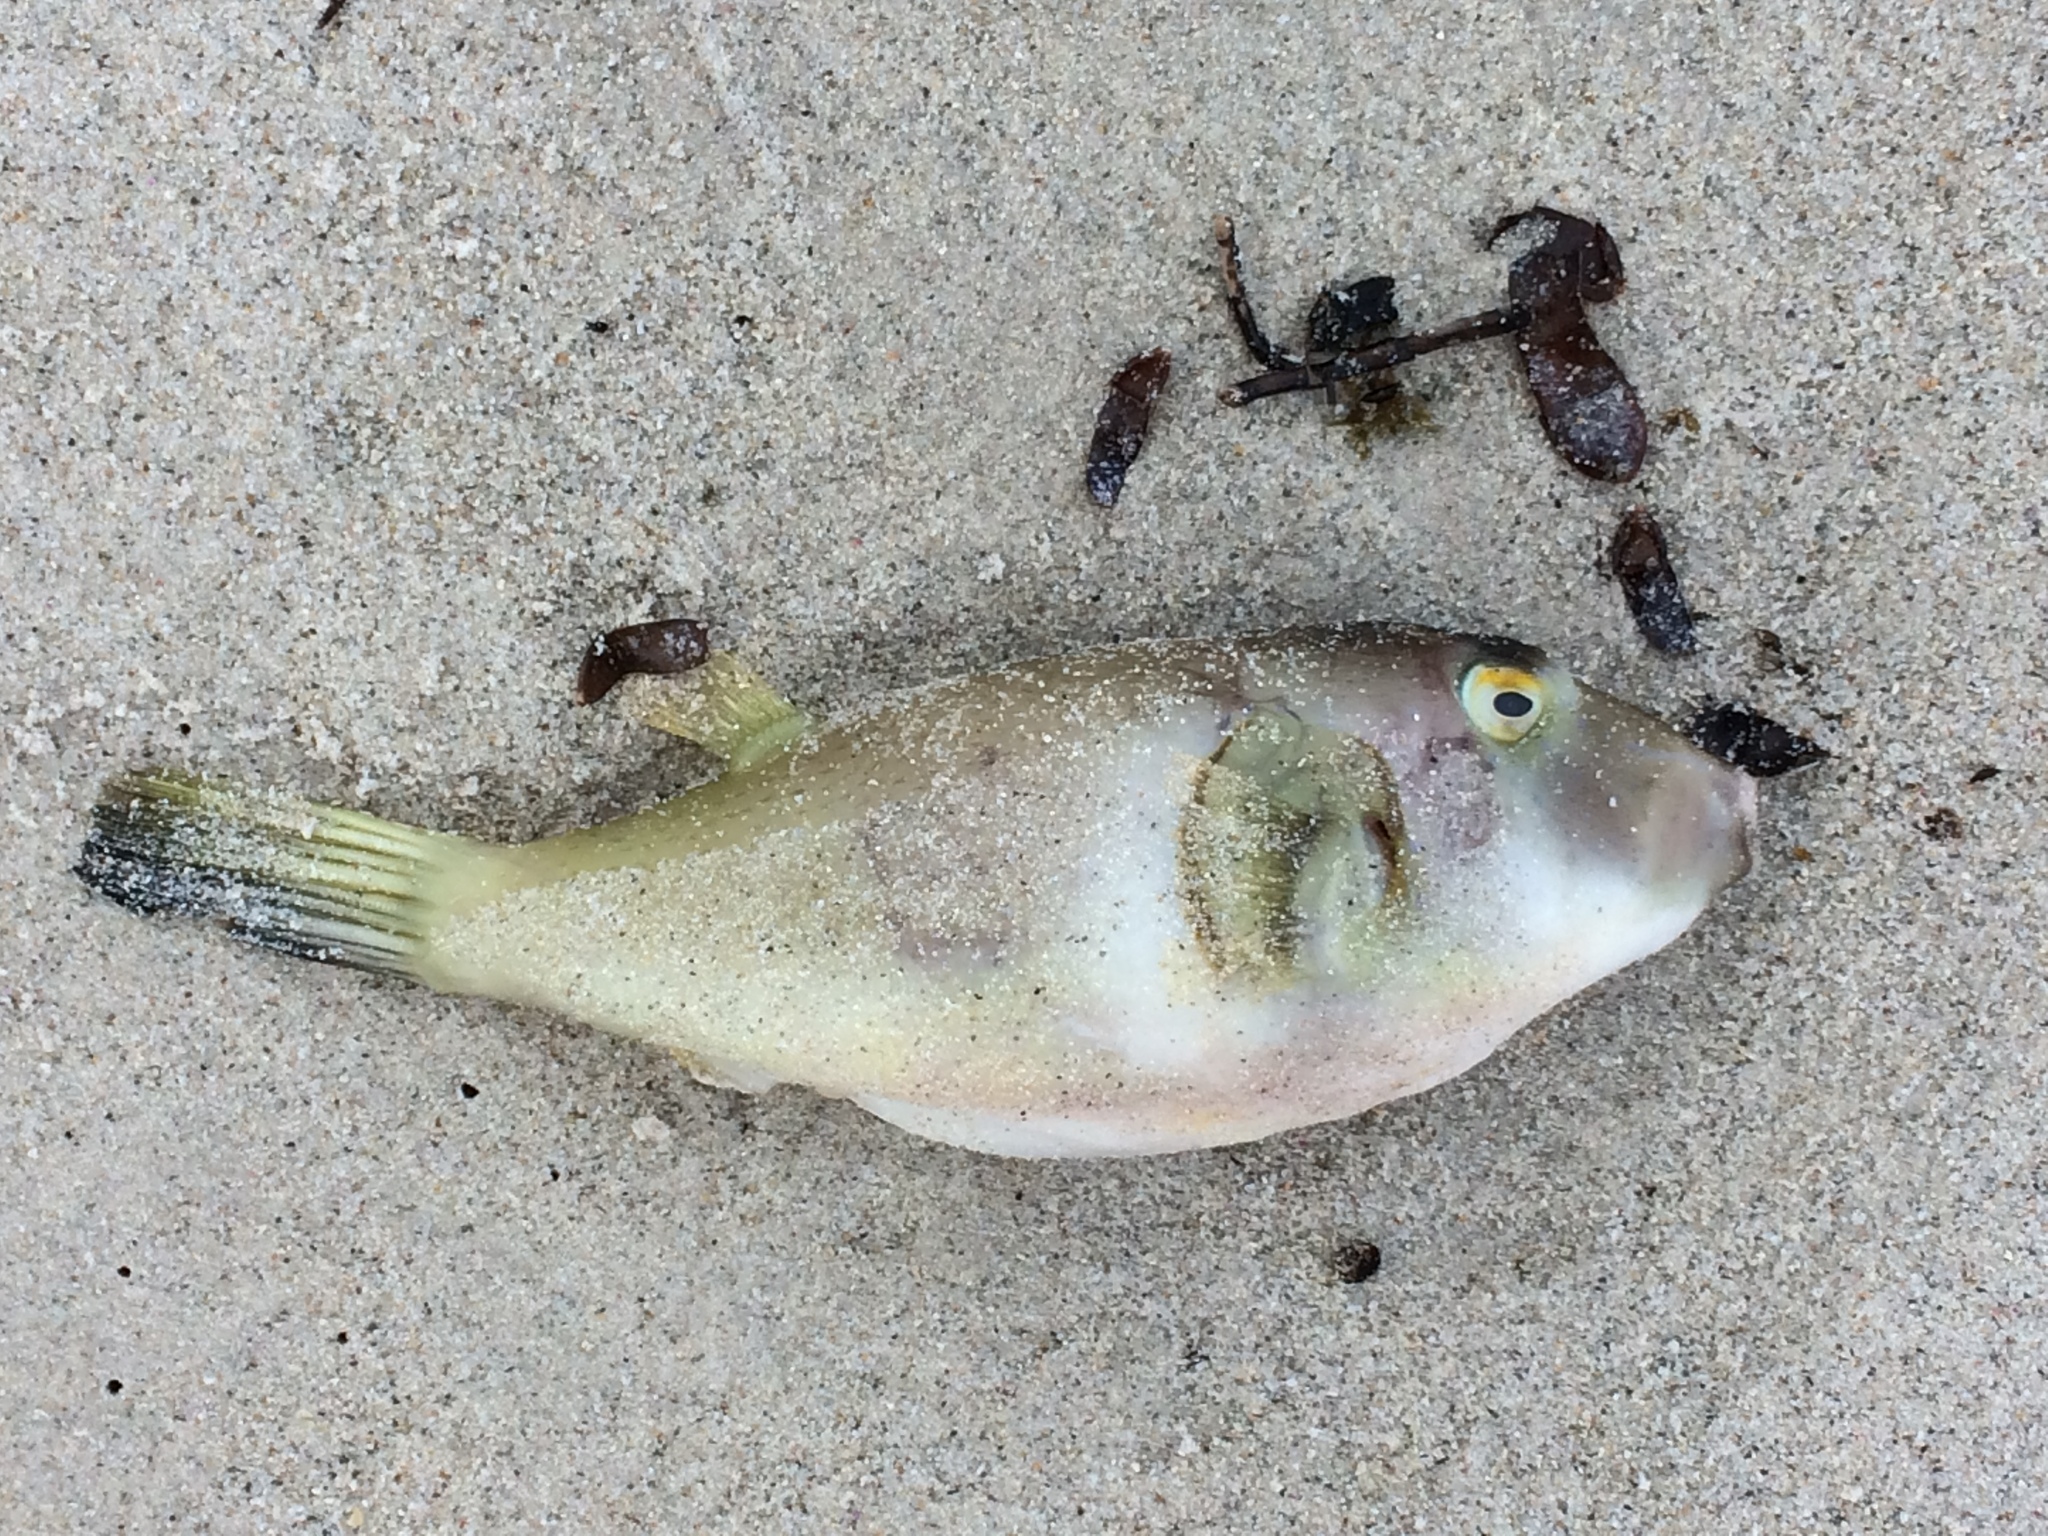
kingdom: Animalia
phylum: Chordata
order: Tetraodontiformes
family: Tetraodontidae
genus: Omegophora
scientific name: Omegophora armilla
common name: Ringed pufferfish
